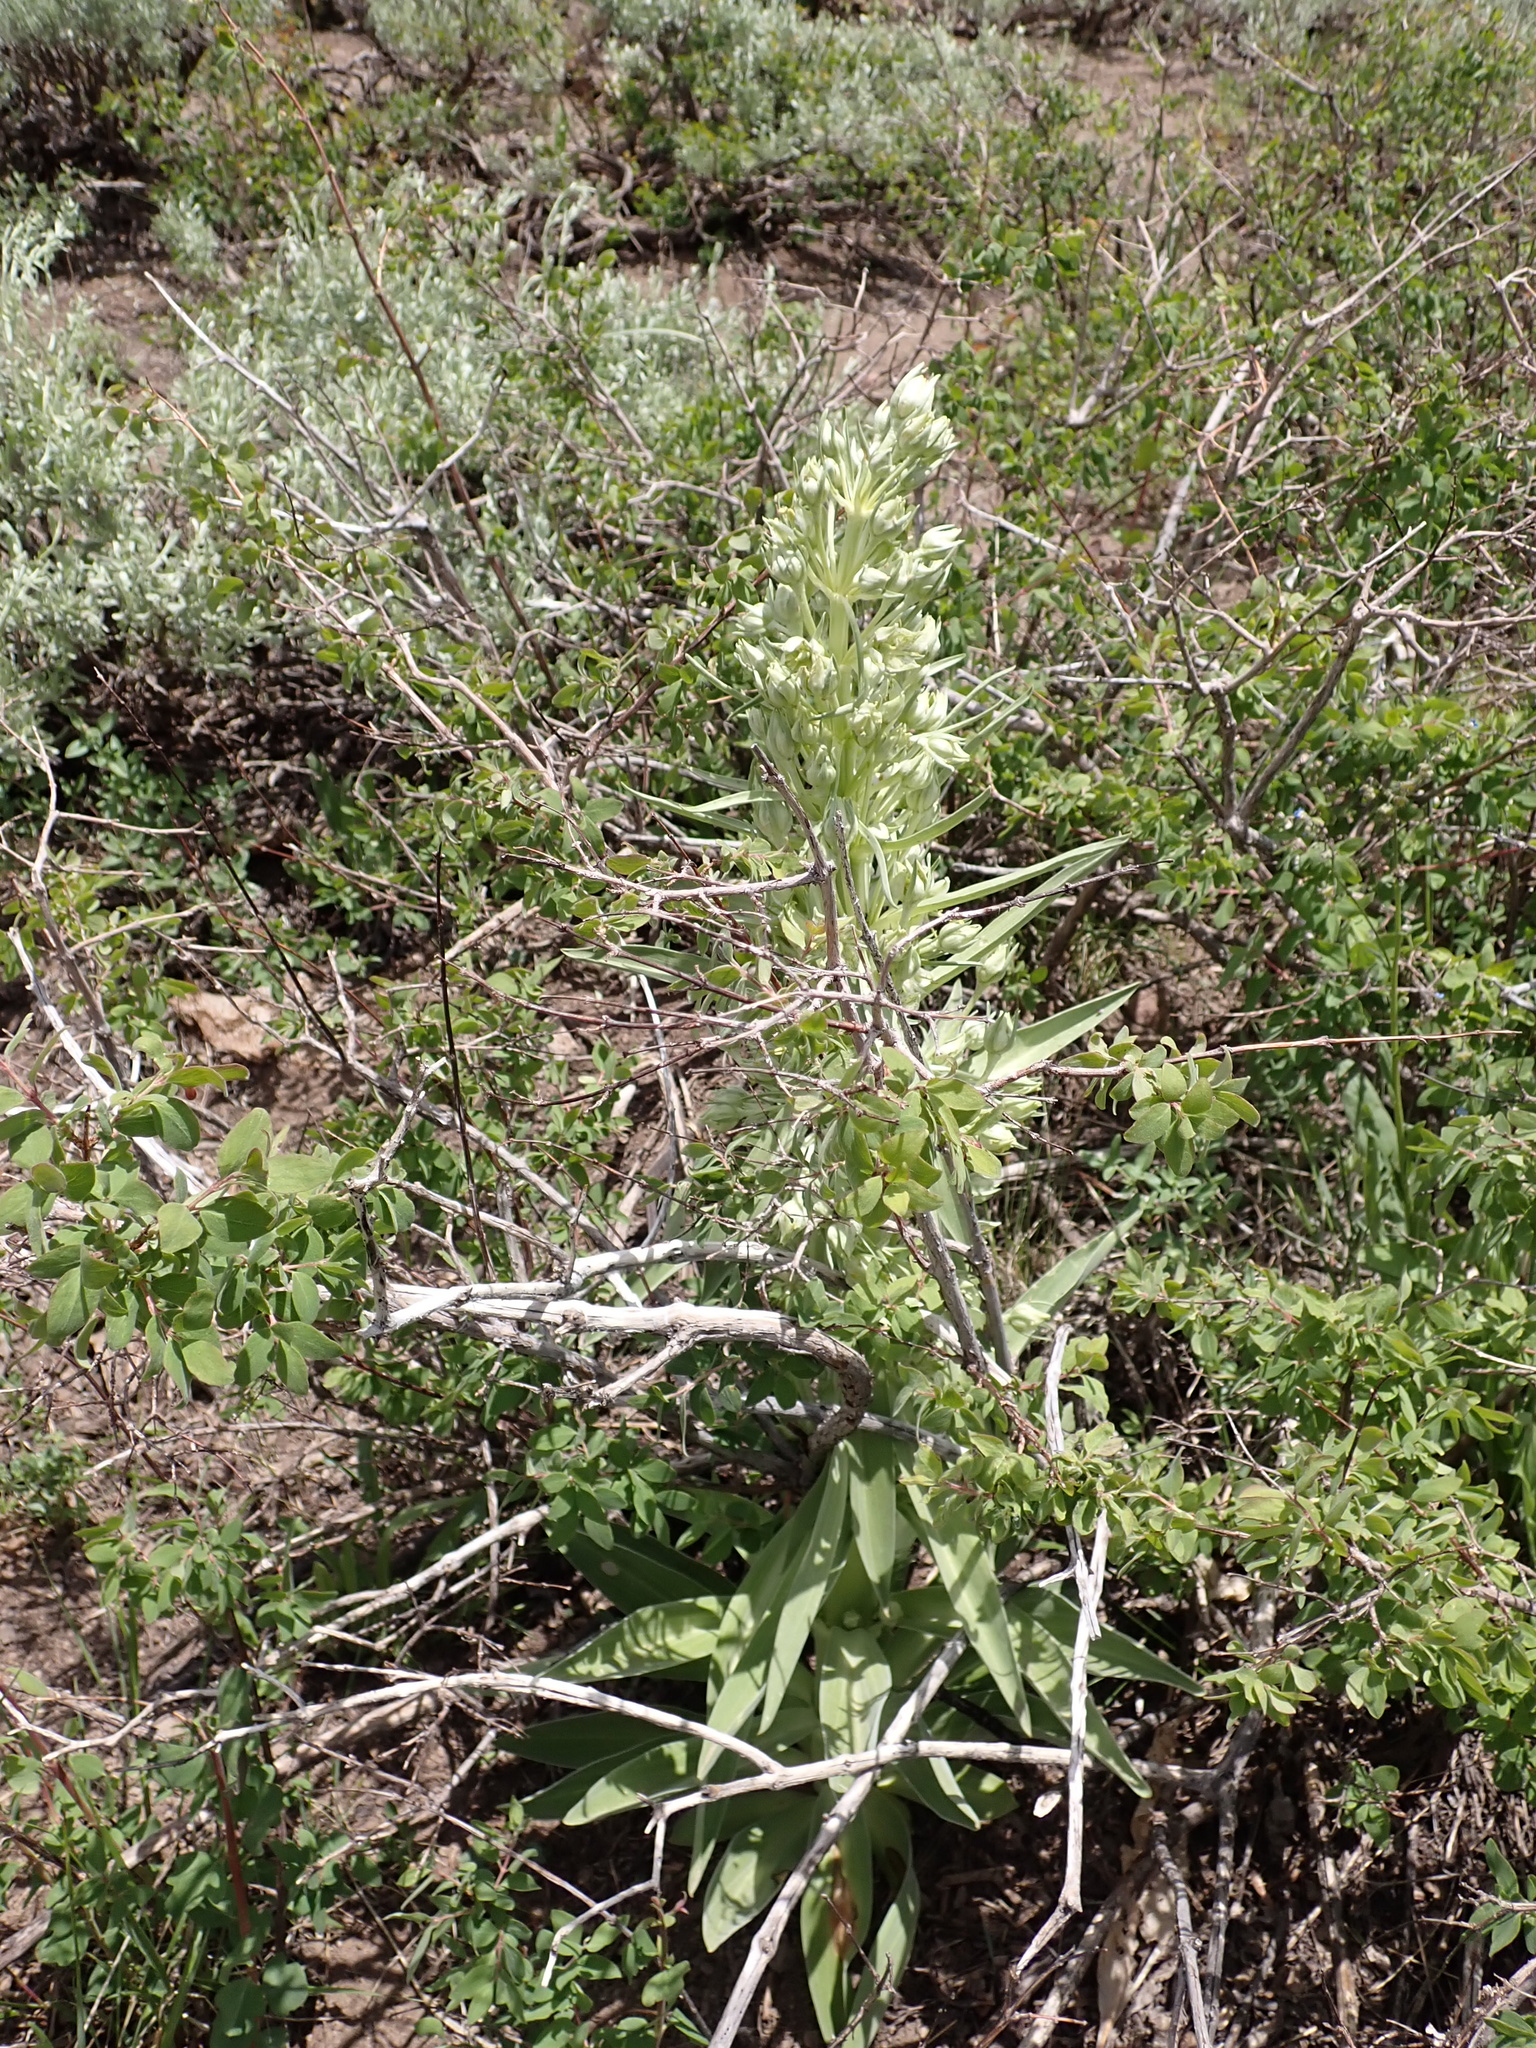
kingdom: Plantae
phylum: Tracheophyta
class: Magnoliopsida
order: Gentianales
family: Gentianaceae
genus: Frasera
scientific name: Frasera speciosa
